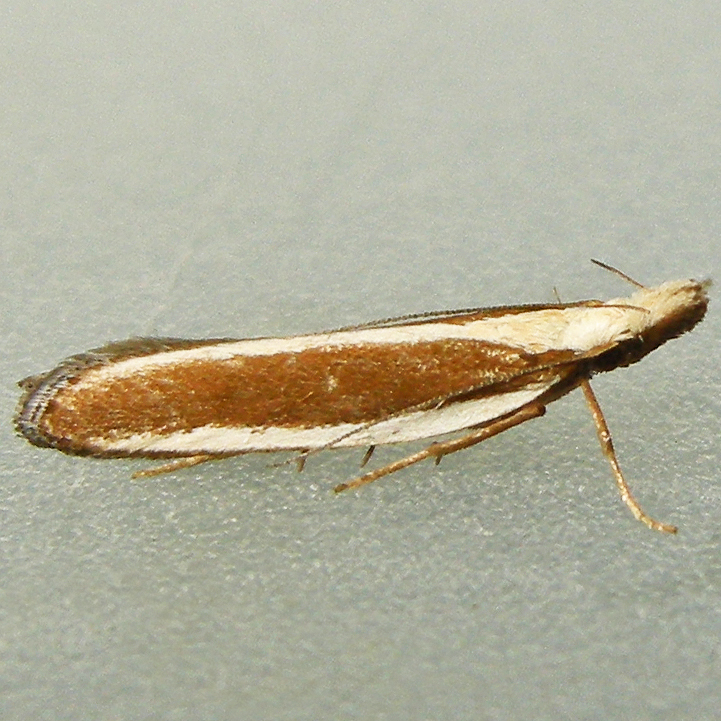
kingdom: Animalia
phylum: Arthropoda
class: Insecta
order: Lepidoptera
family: Gelechiidae
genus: Dichomeris
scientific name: Dichomeris marginella
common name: Juniper webworm
